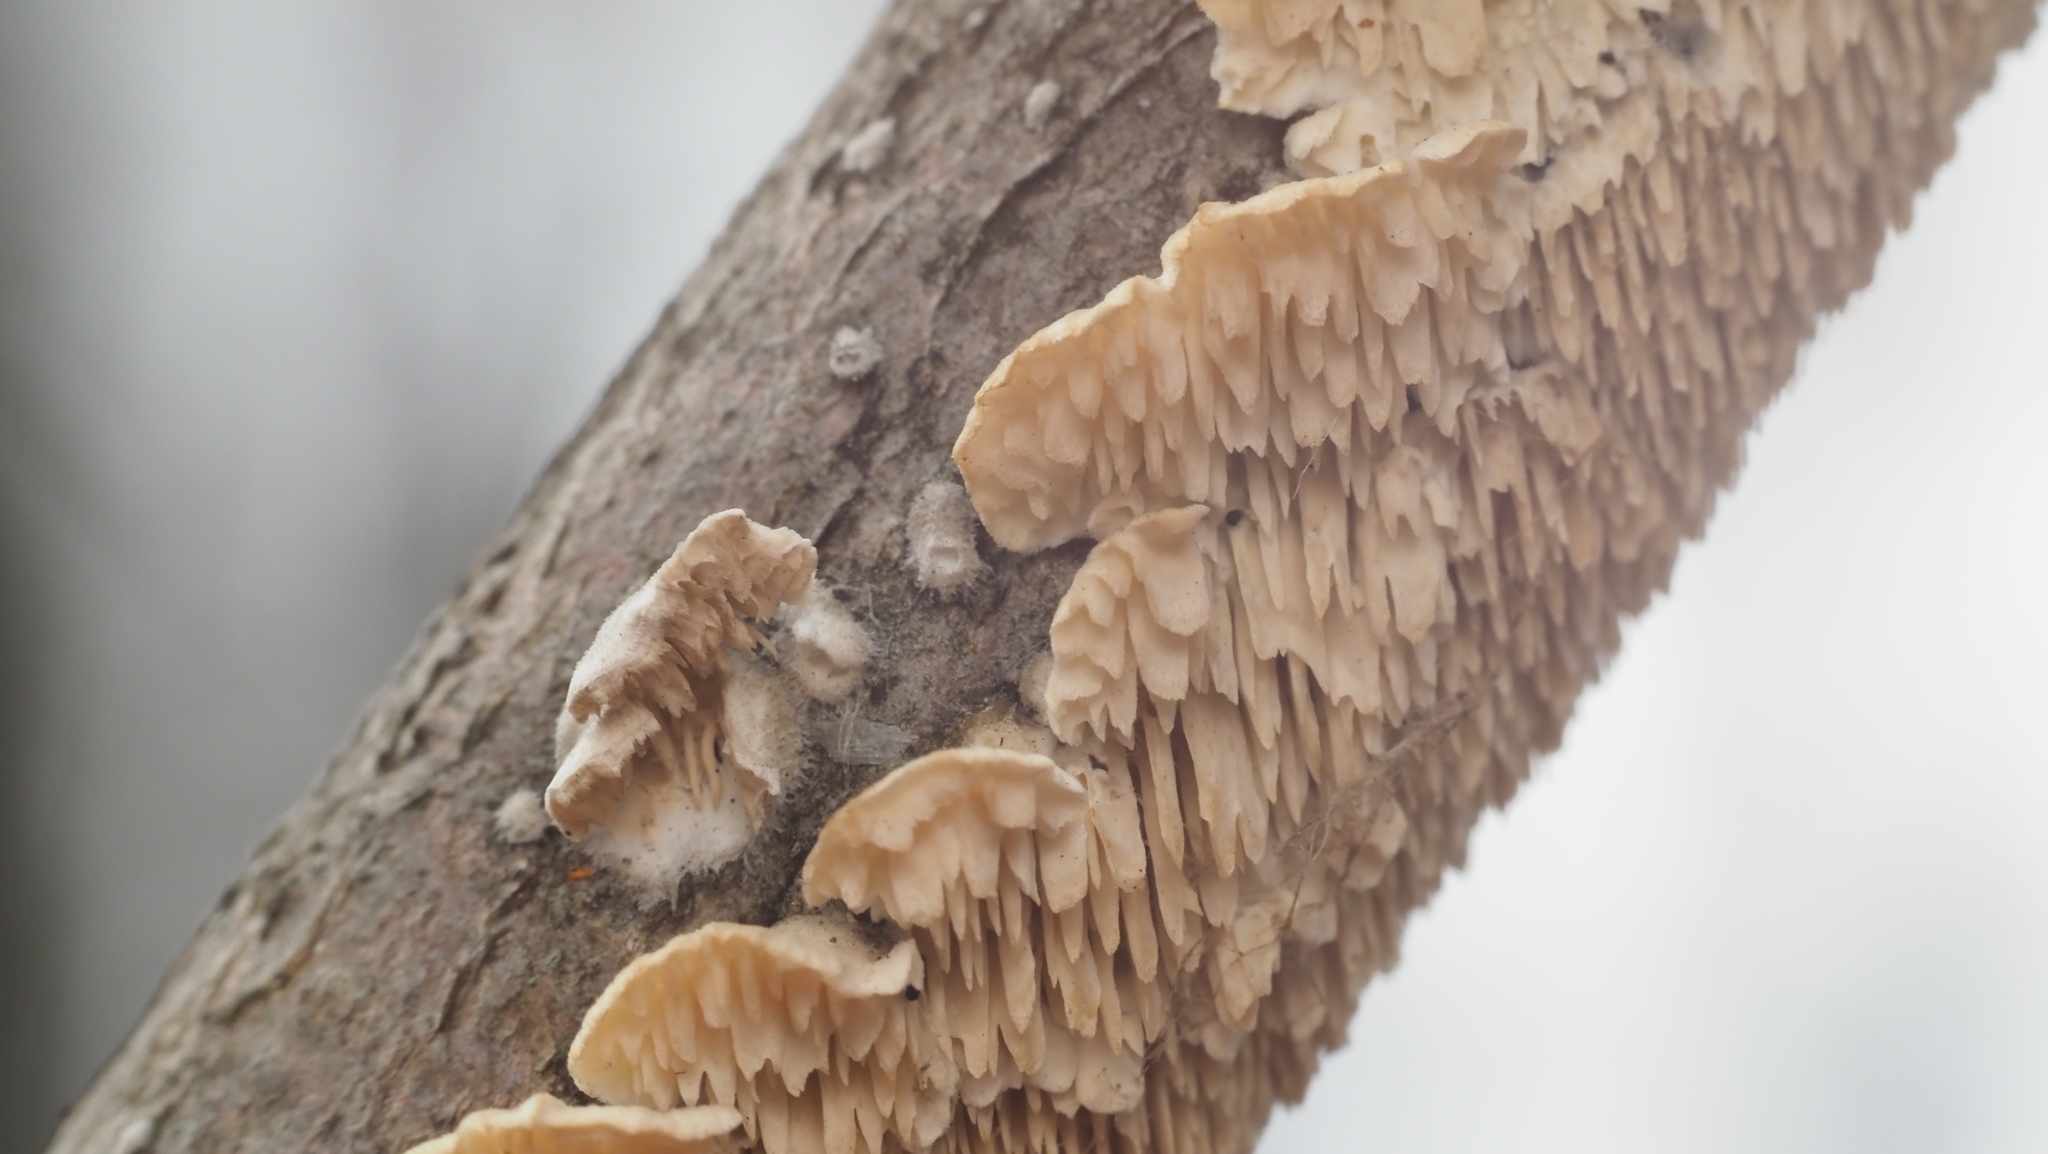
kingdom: Fungi
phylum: Basidiomycota
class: Agaricomycetes
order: Polyporales
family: Irpicaceae
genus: Irpex
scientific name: Irpex lacteus
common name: Milk-white toothed polypore
